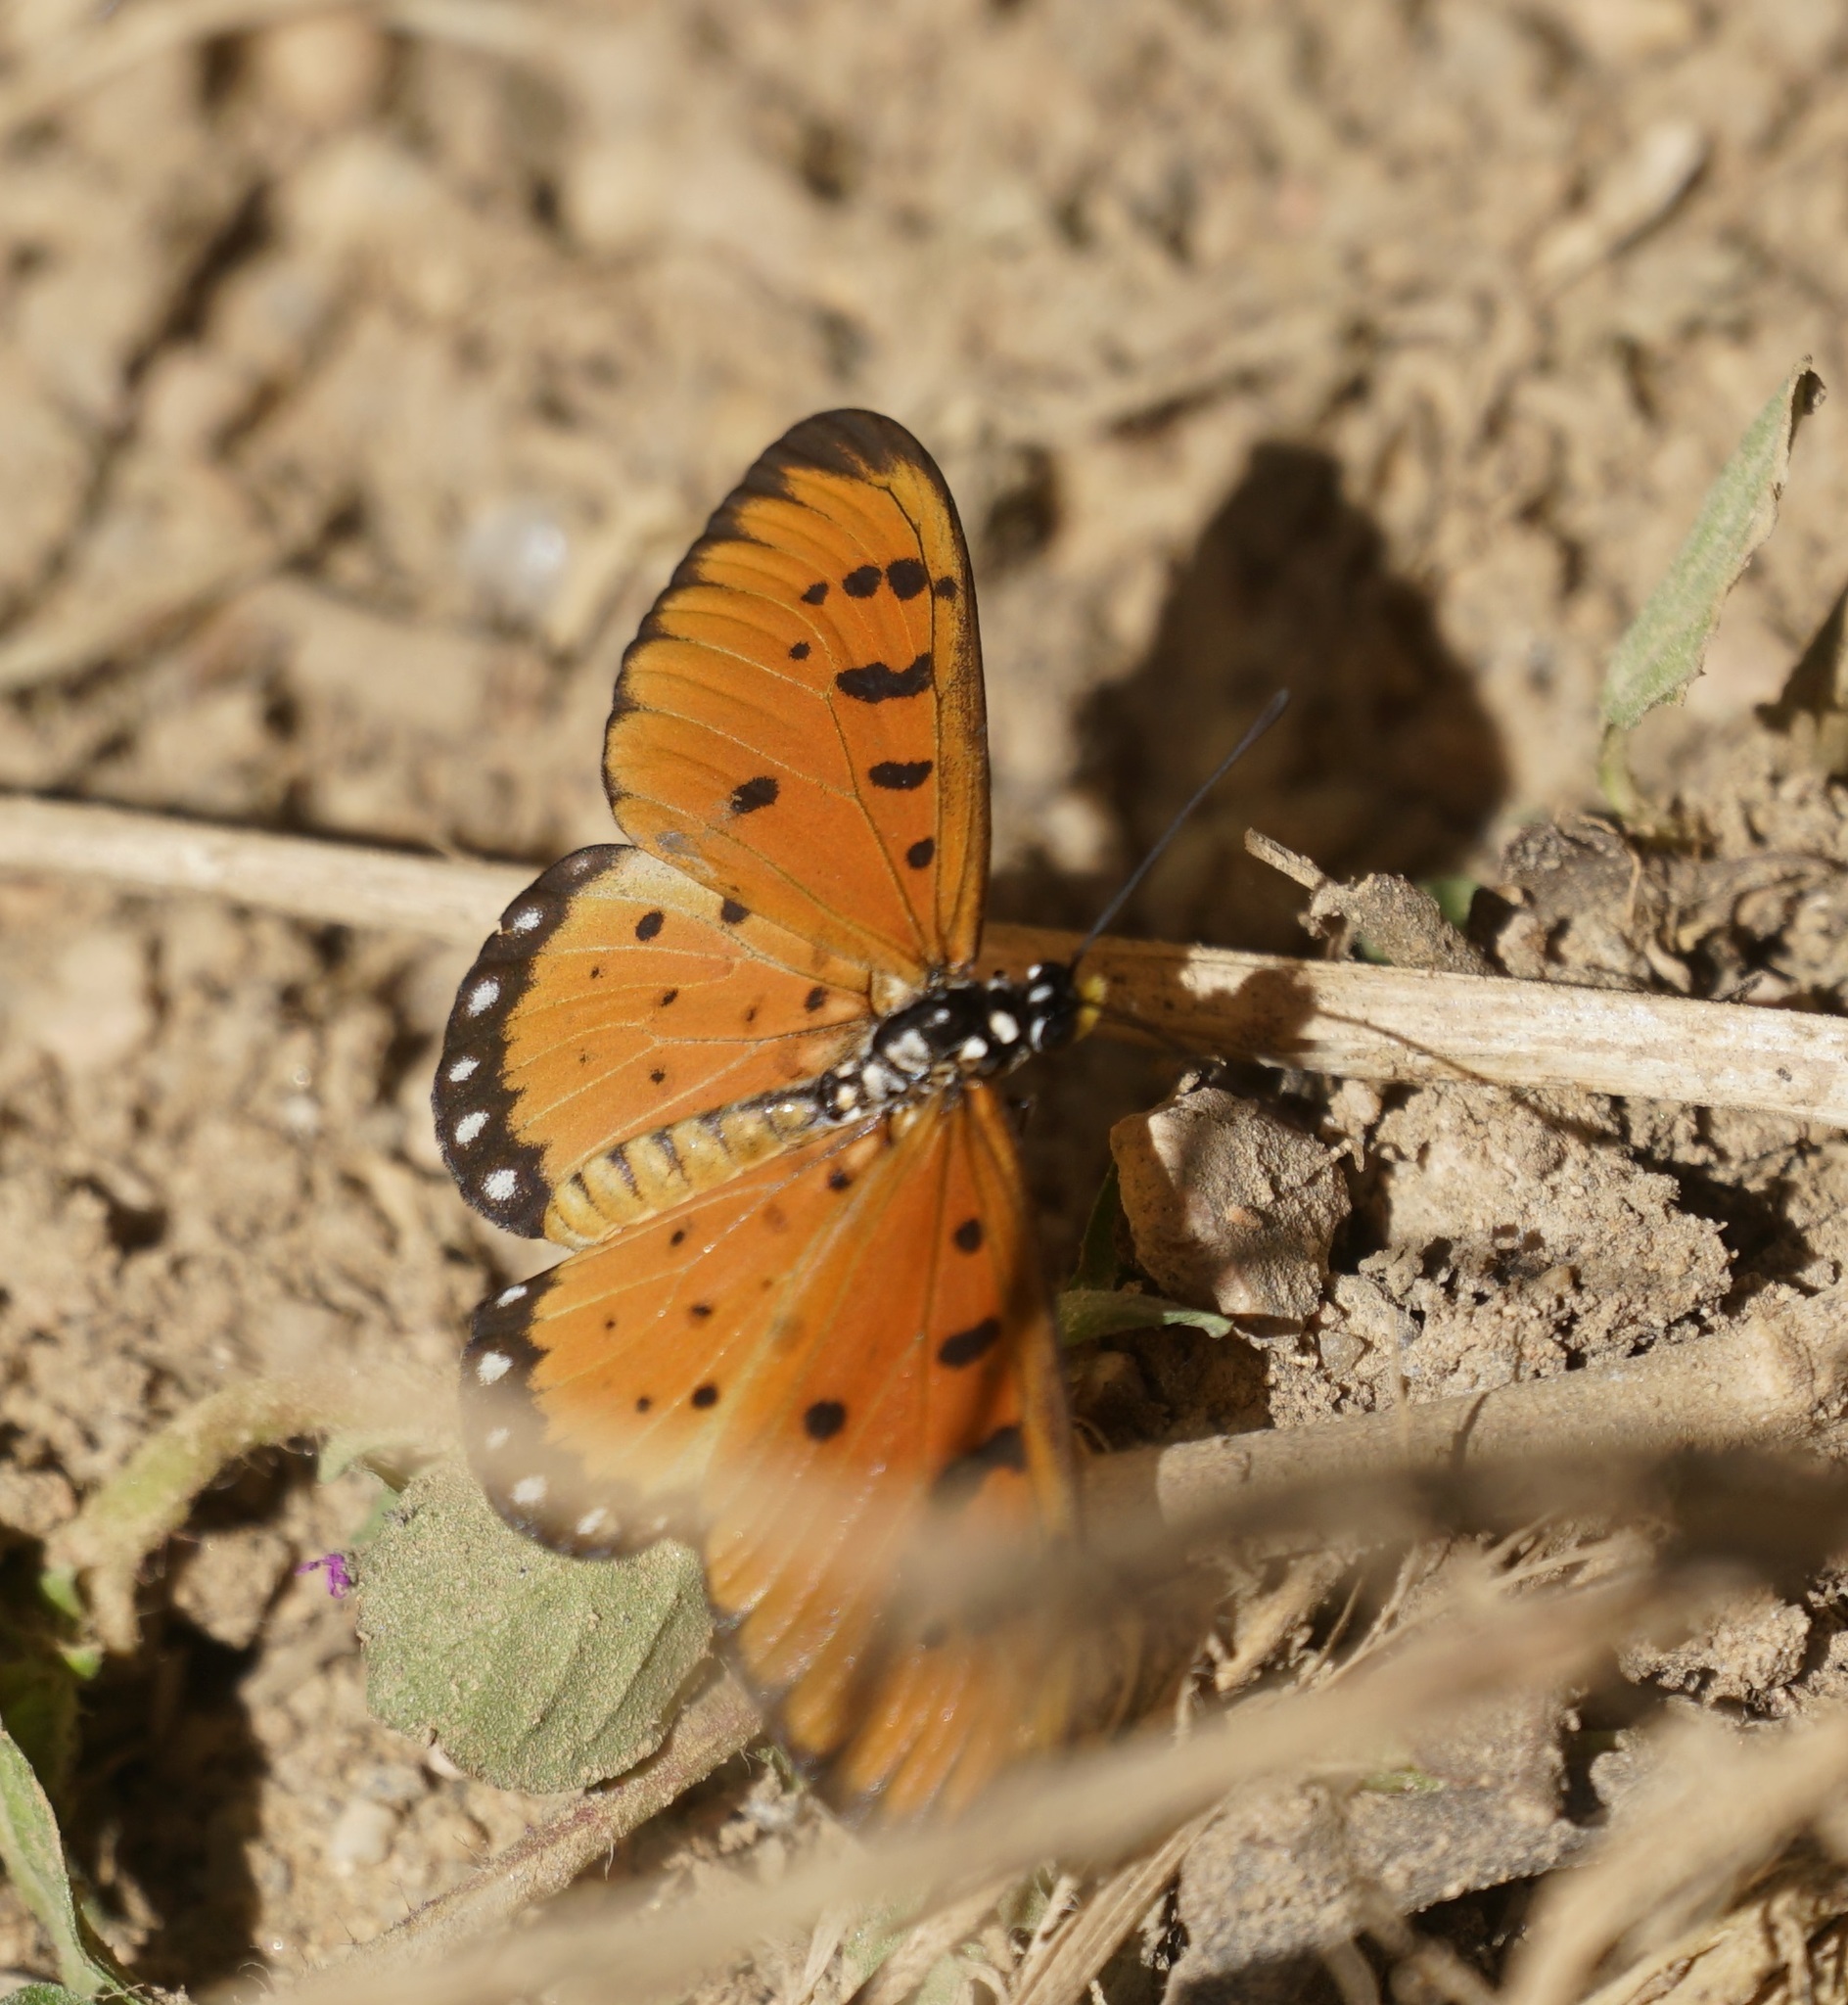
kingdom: Animalia
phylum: Arthropoda
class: Insecta
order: Lepidoptera
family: Nymphalidae
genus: Acraea
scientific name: Acraea terpsicore
